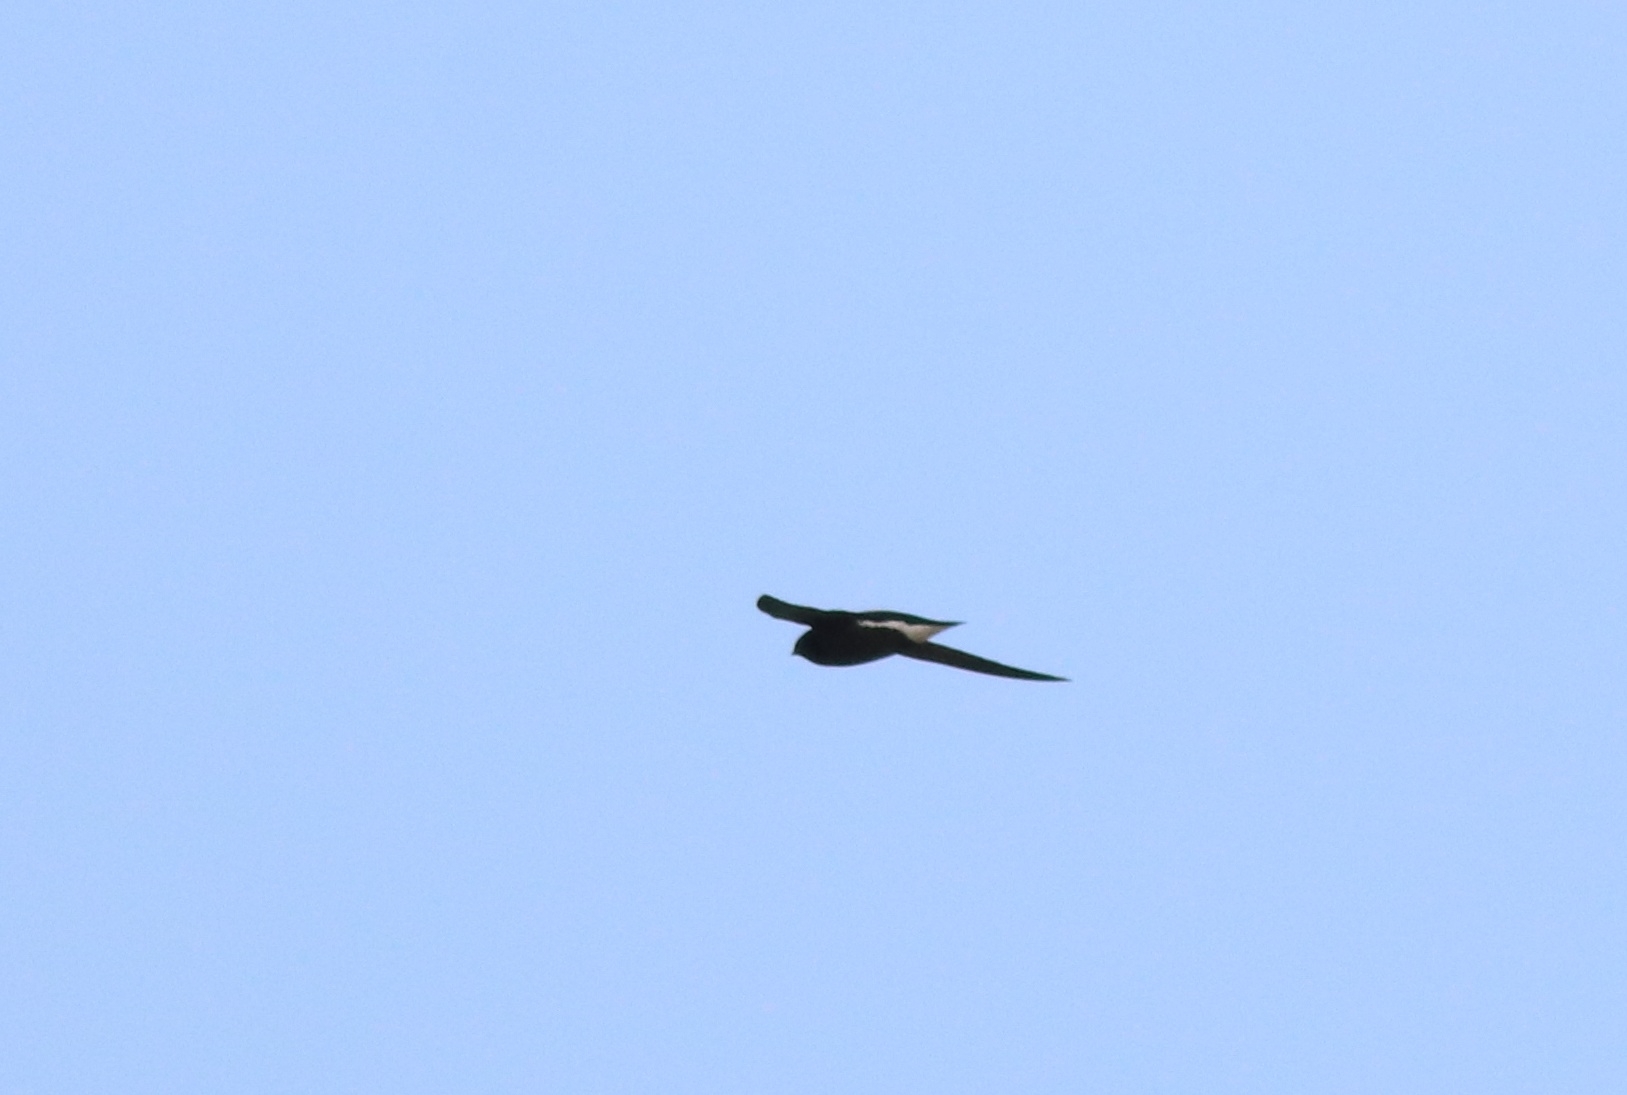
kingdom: Animalia
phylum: Chordata
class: Aves
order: Apodiformes
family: Apodidae
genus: Hirundapus
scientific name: Hirundapus giganteus
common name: Brown-backed needletail
